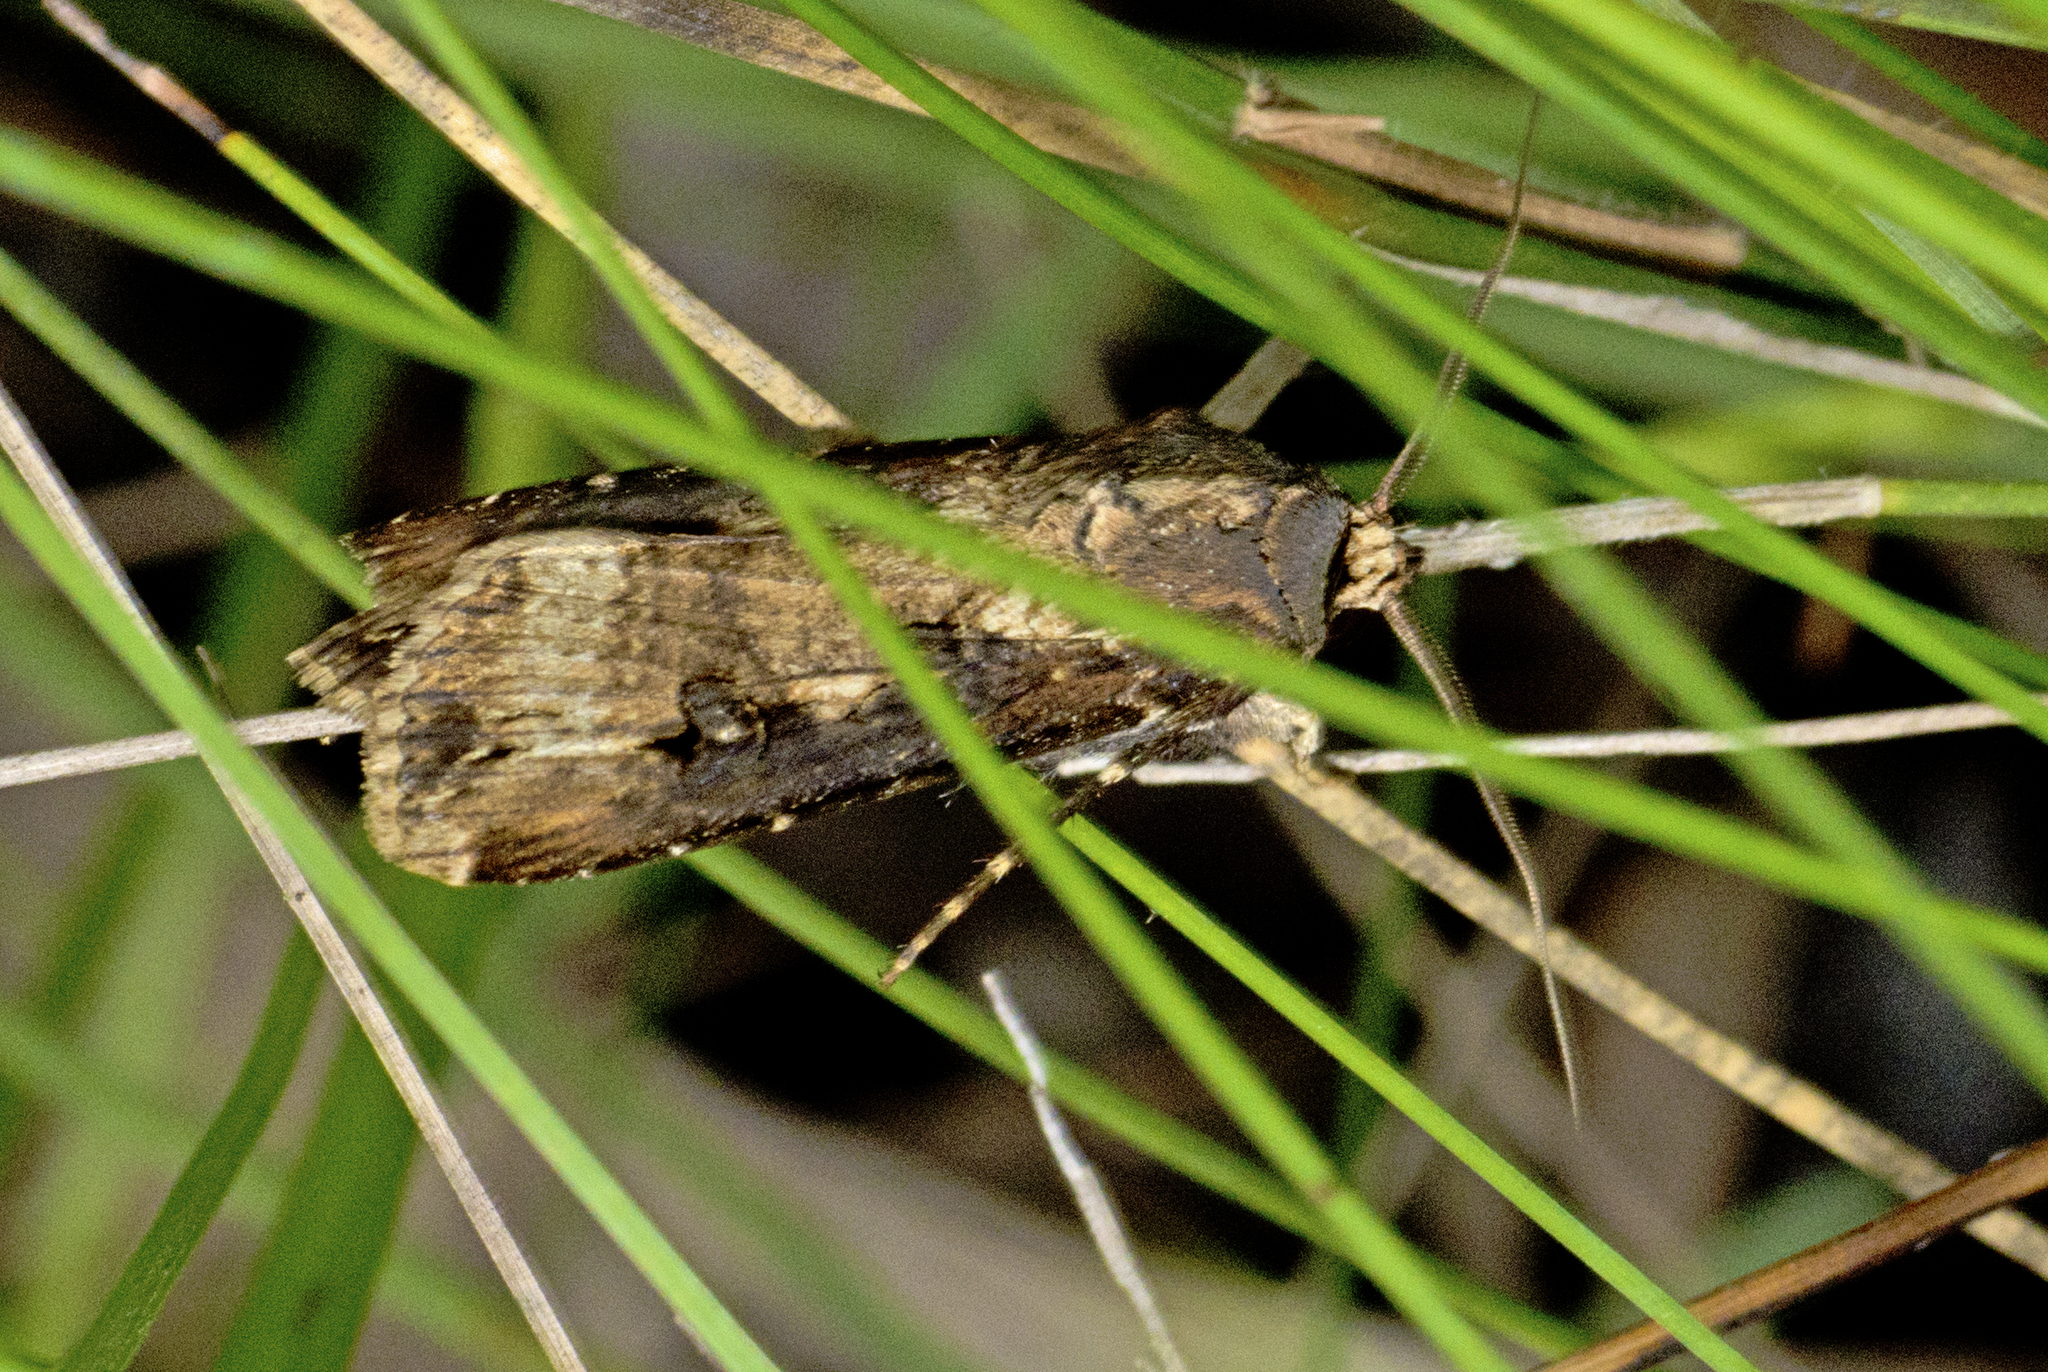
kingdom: Animalia
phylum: Arthropoda
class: Insecta
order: Lepidoptera
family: Noctuidae
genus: Agrotis
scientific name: Agrotis ipsilon
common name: Dark sword-grass
